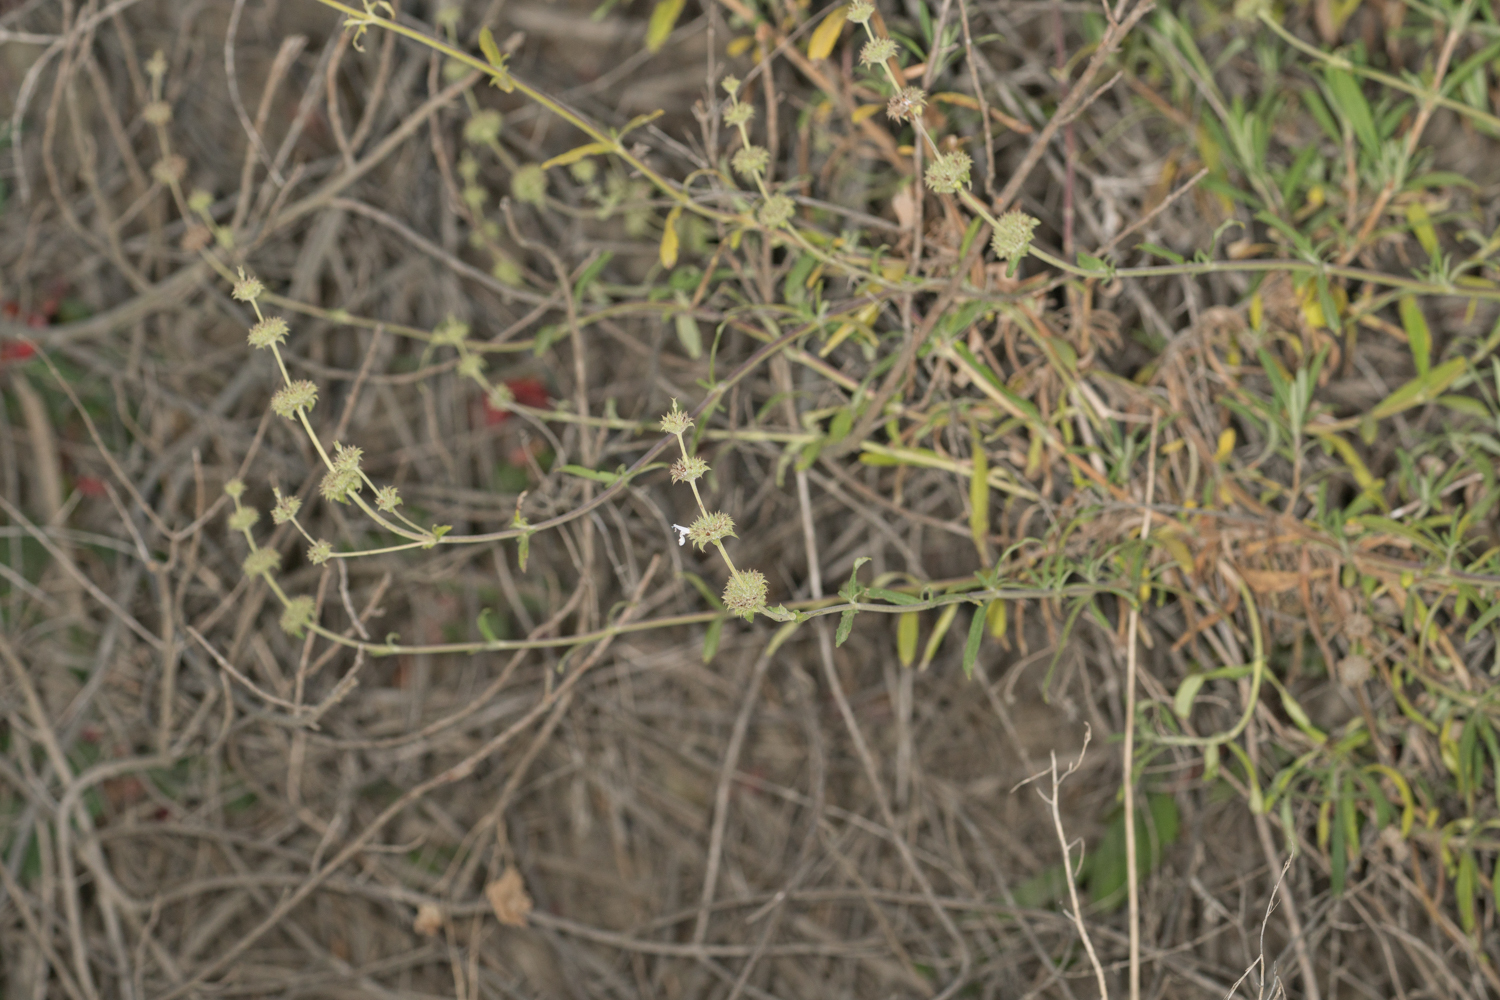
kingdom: Plantae
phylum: Tracheophyta
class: Magnoliopsida
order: Lamiales
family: Lamiaceae
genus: Salvia
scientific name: Salvia mellifera
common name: Black sage
